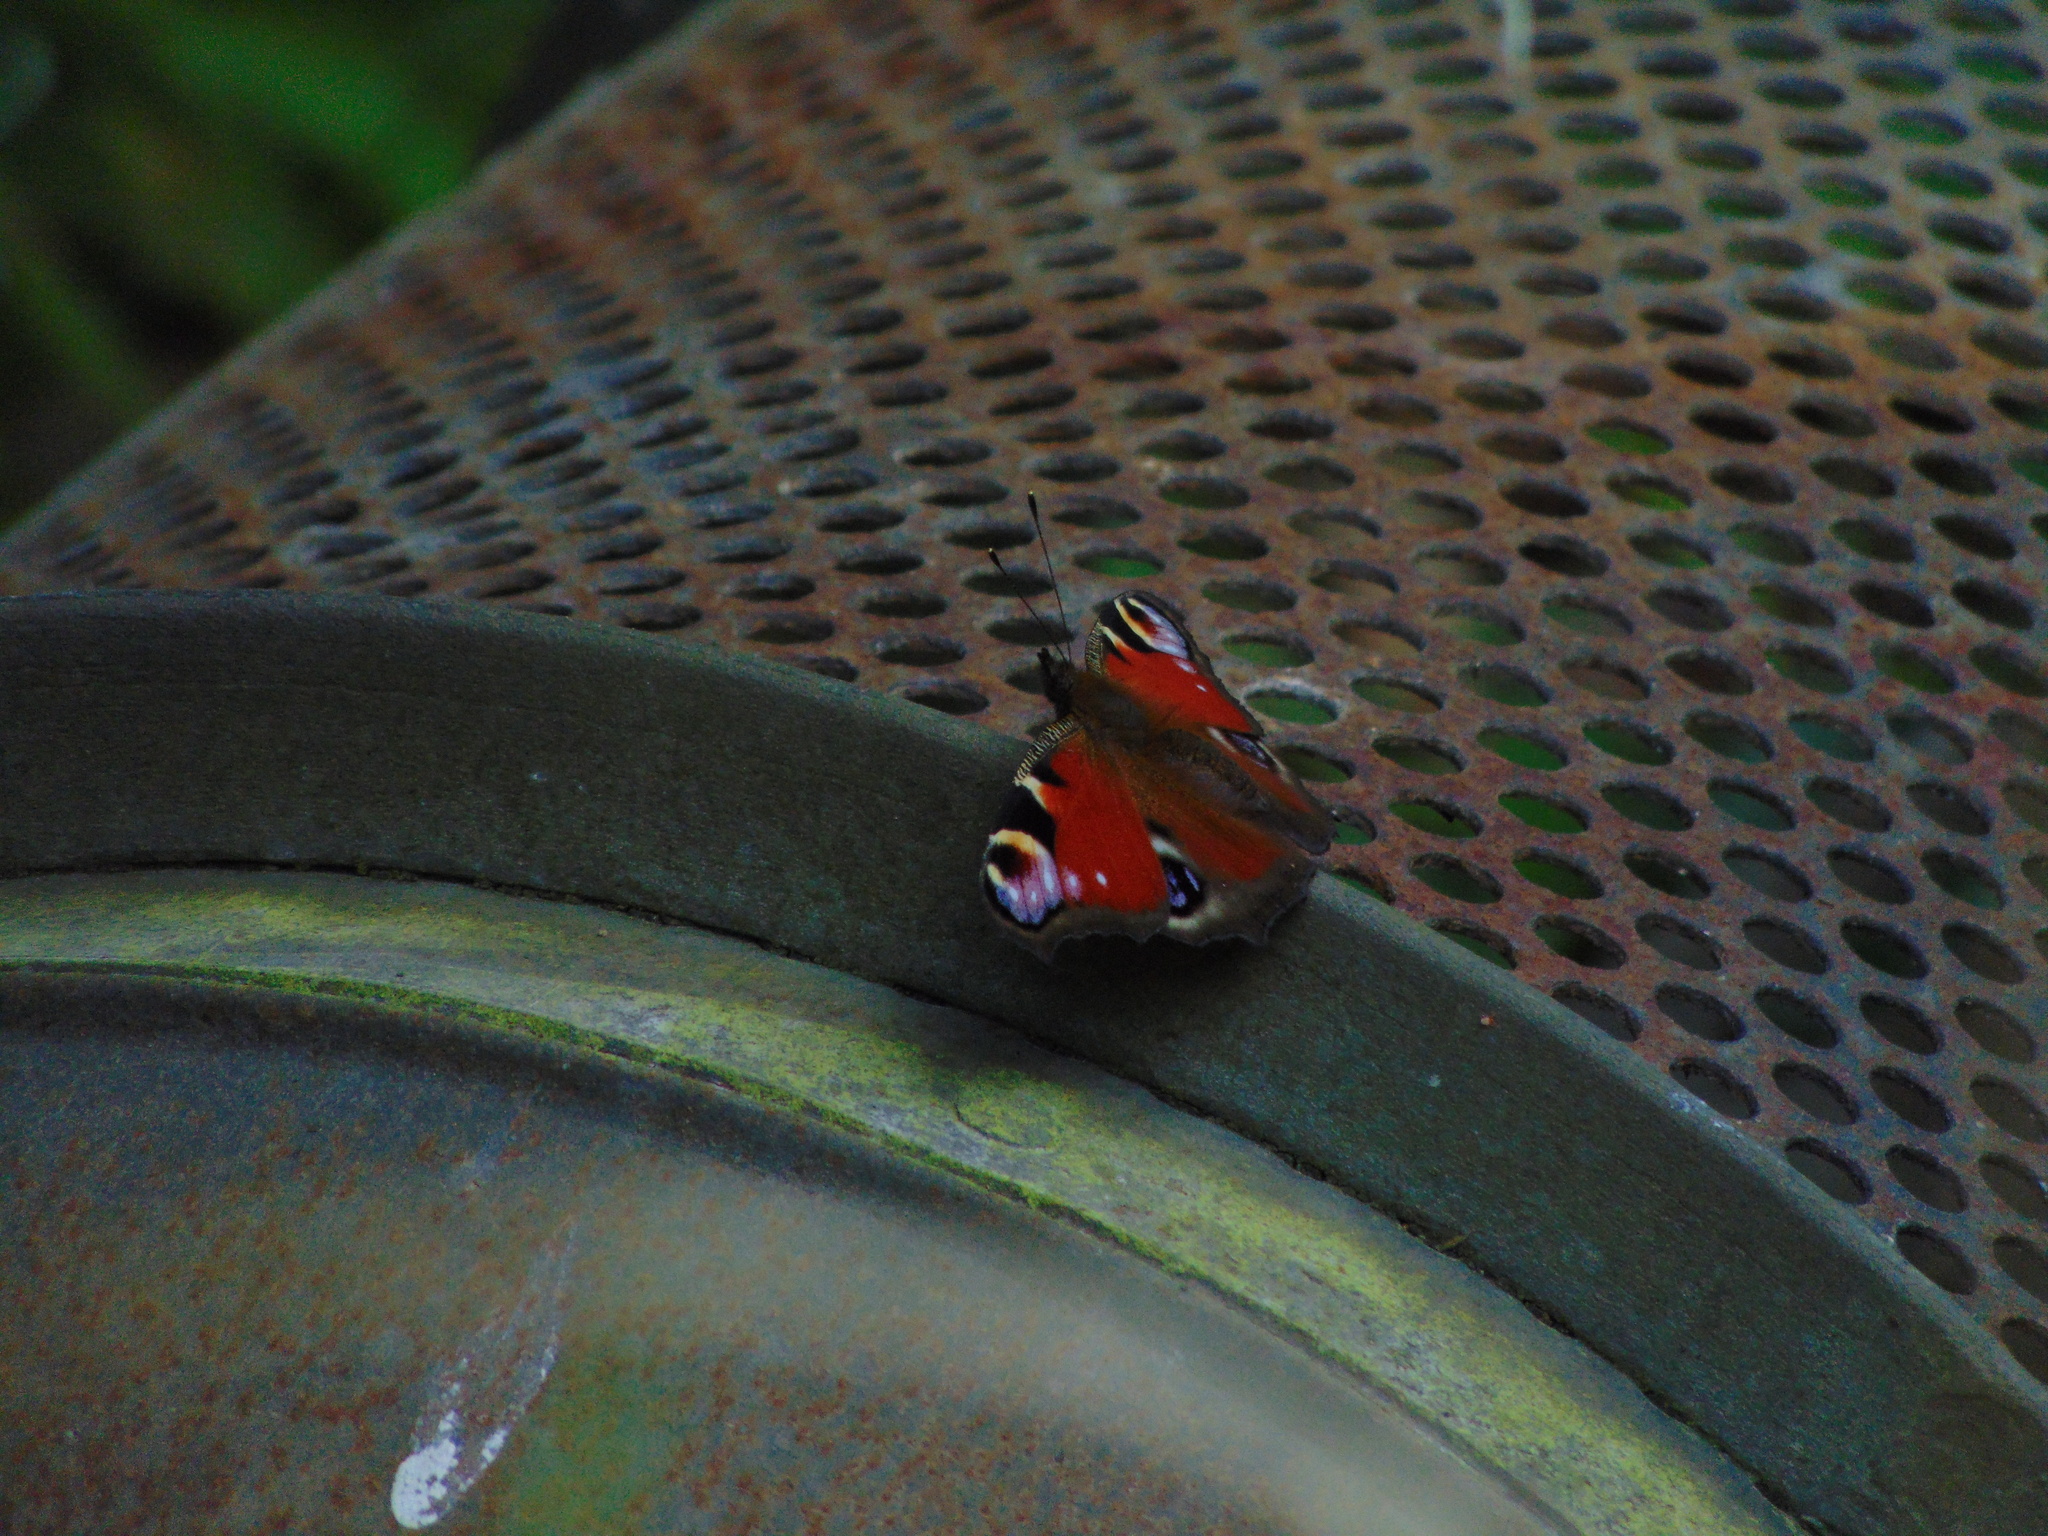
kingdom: Animalia
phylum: Arthropoda
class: Insecta
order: Lepidoptera
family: Nymphalidae
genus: Aglais
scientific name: Aglais io
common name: Peacock
